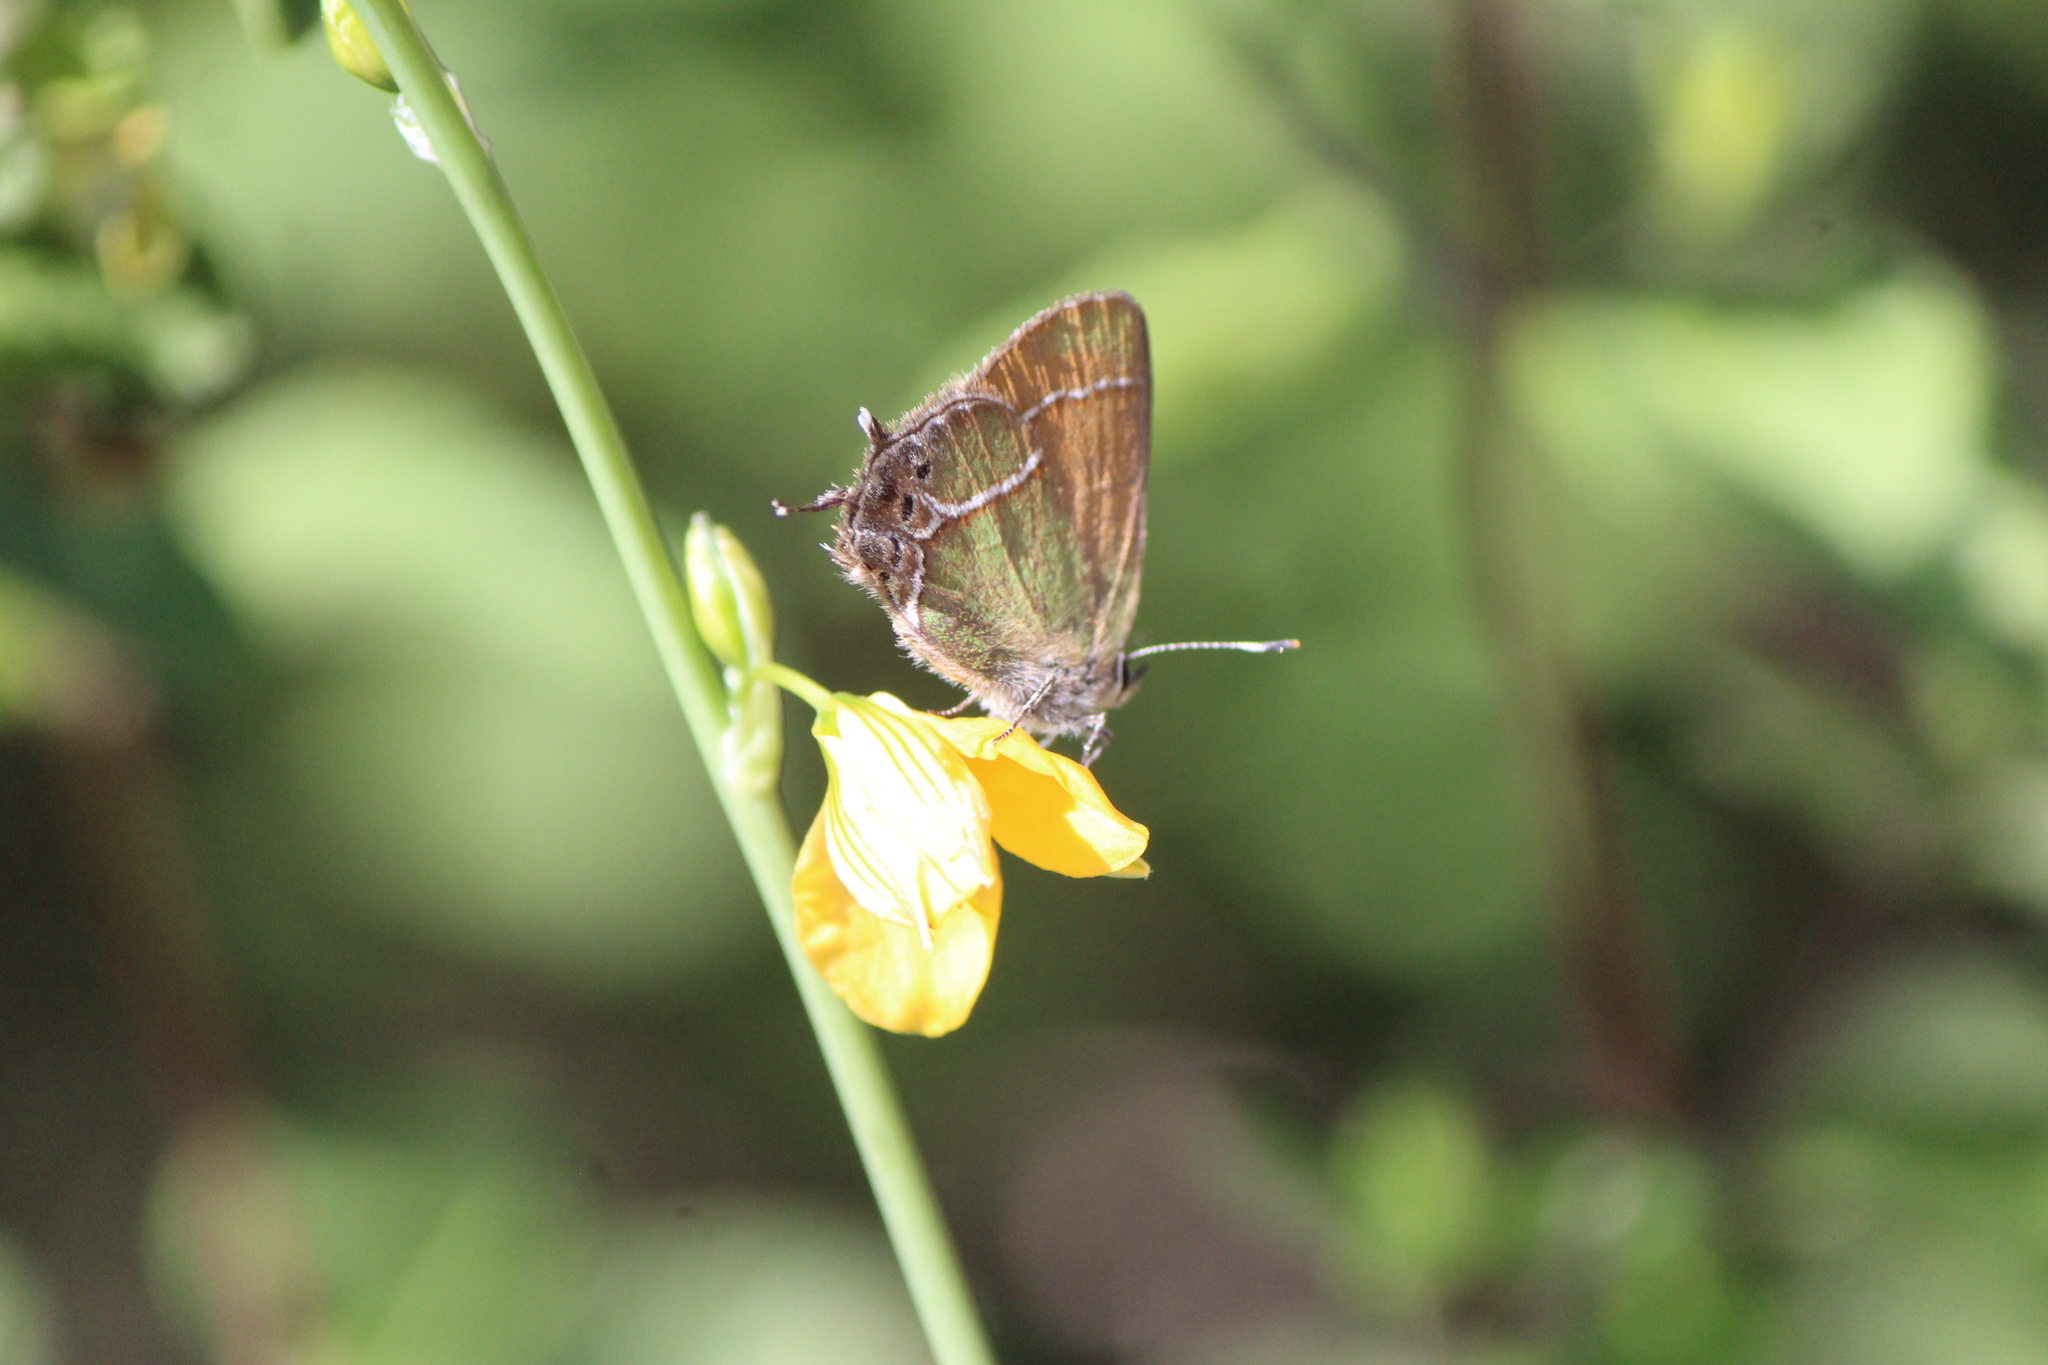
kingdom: Animalia
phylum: Arthropoda
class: Insecta
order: Lepidoptera
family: Lycaenidae
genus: Xamia
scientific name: Xamia xami
